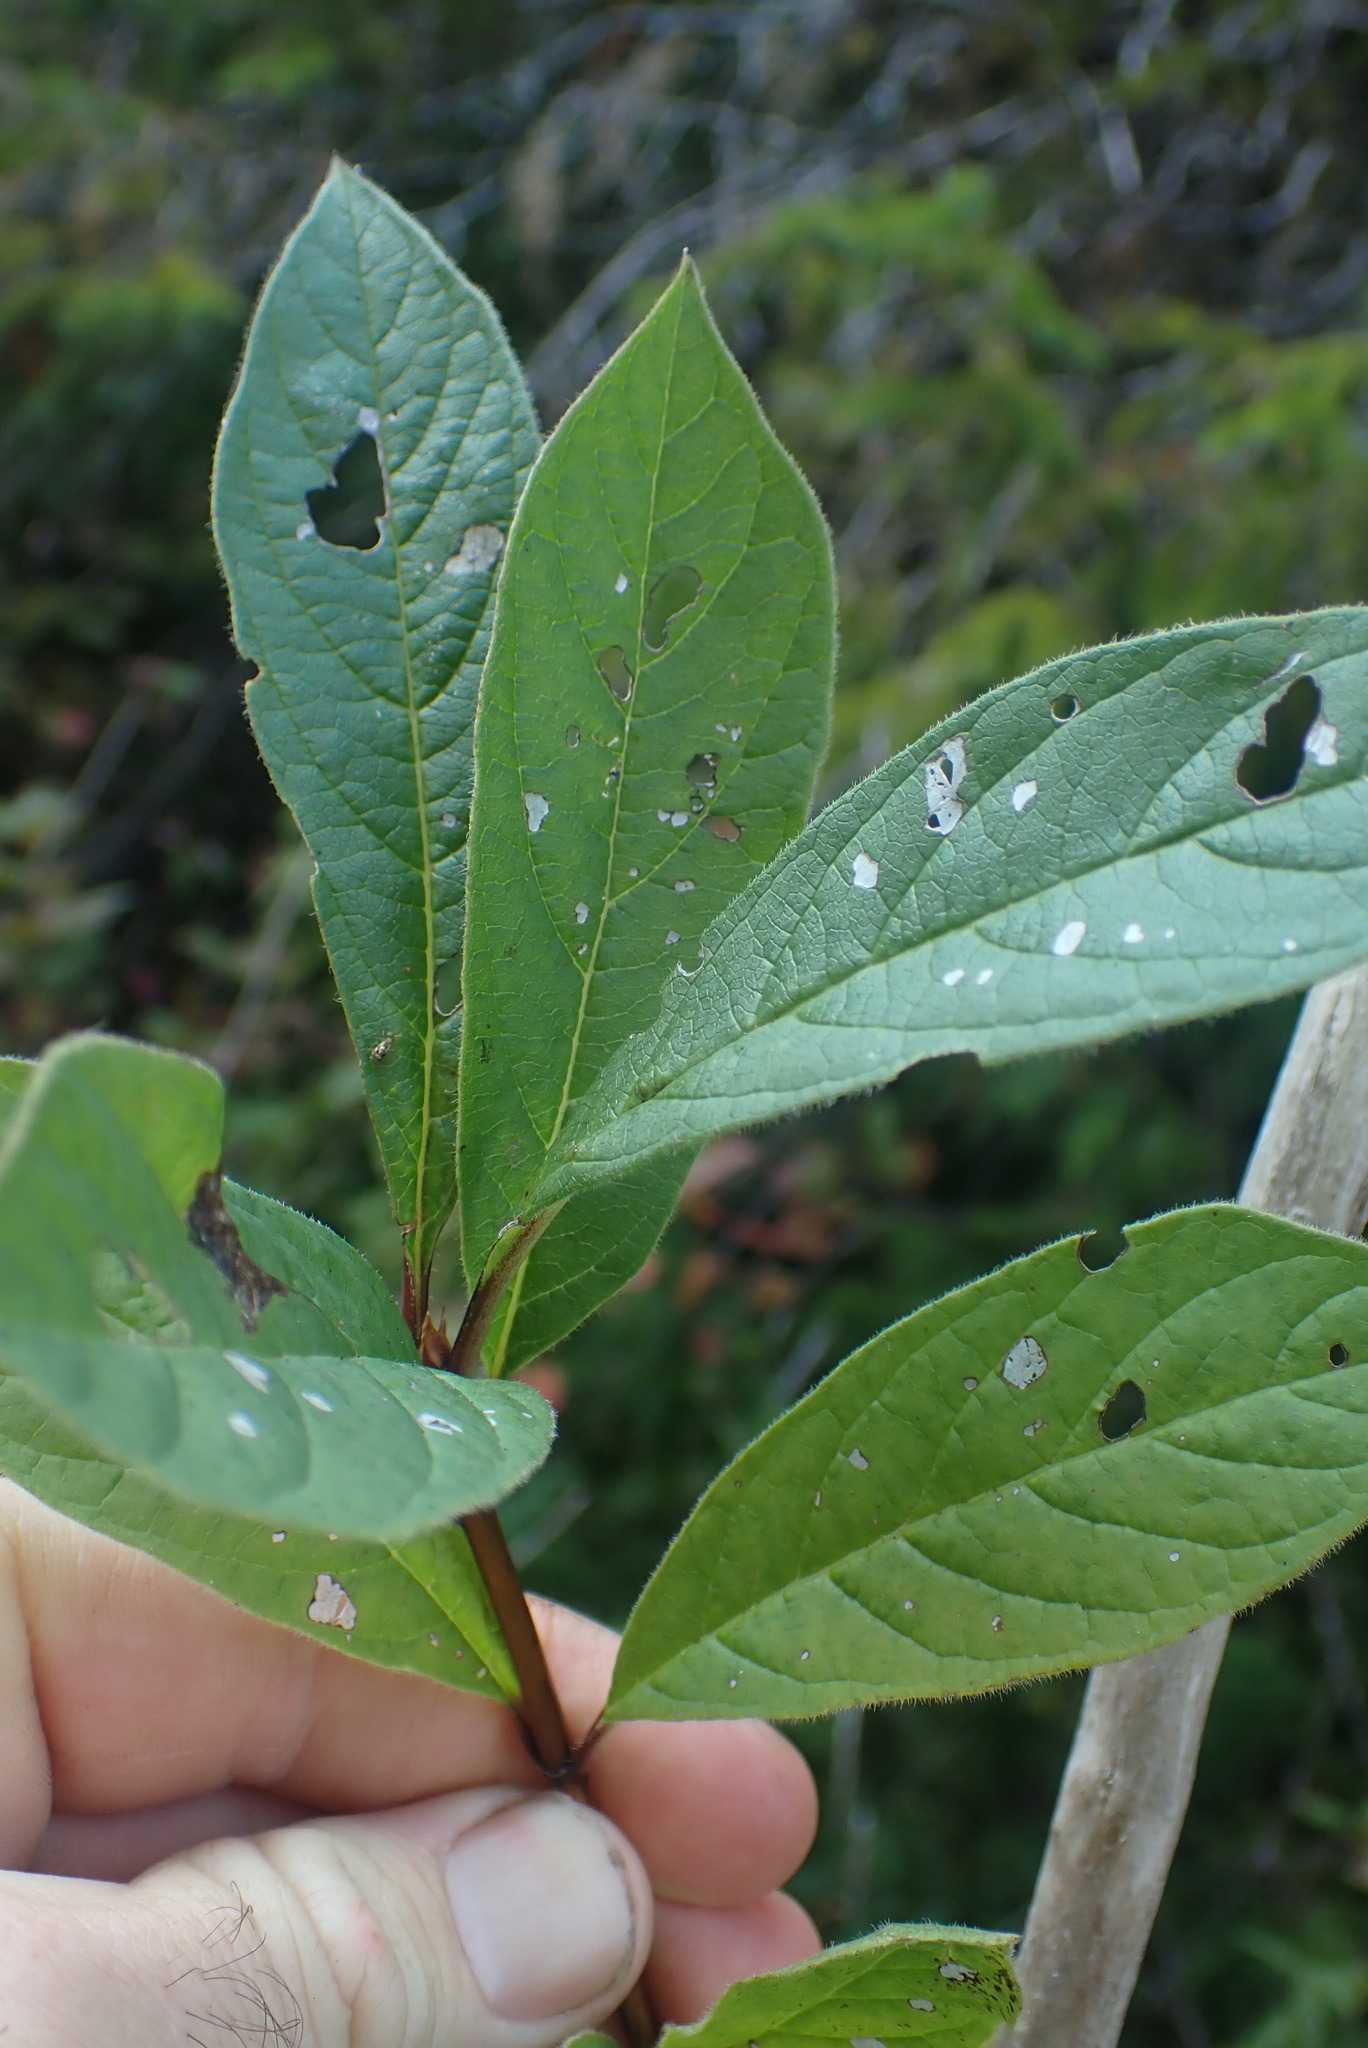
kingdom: Plantae
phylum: Tracheophyta
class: Magnoliopsida
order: Dipsacales
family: Caprifoliaceae
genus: Lonicera
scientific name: Lonicera involucrata
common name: Californian honeysuckle
